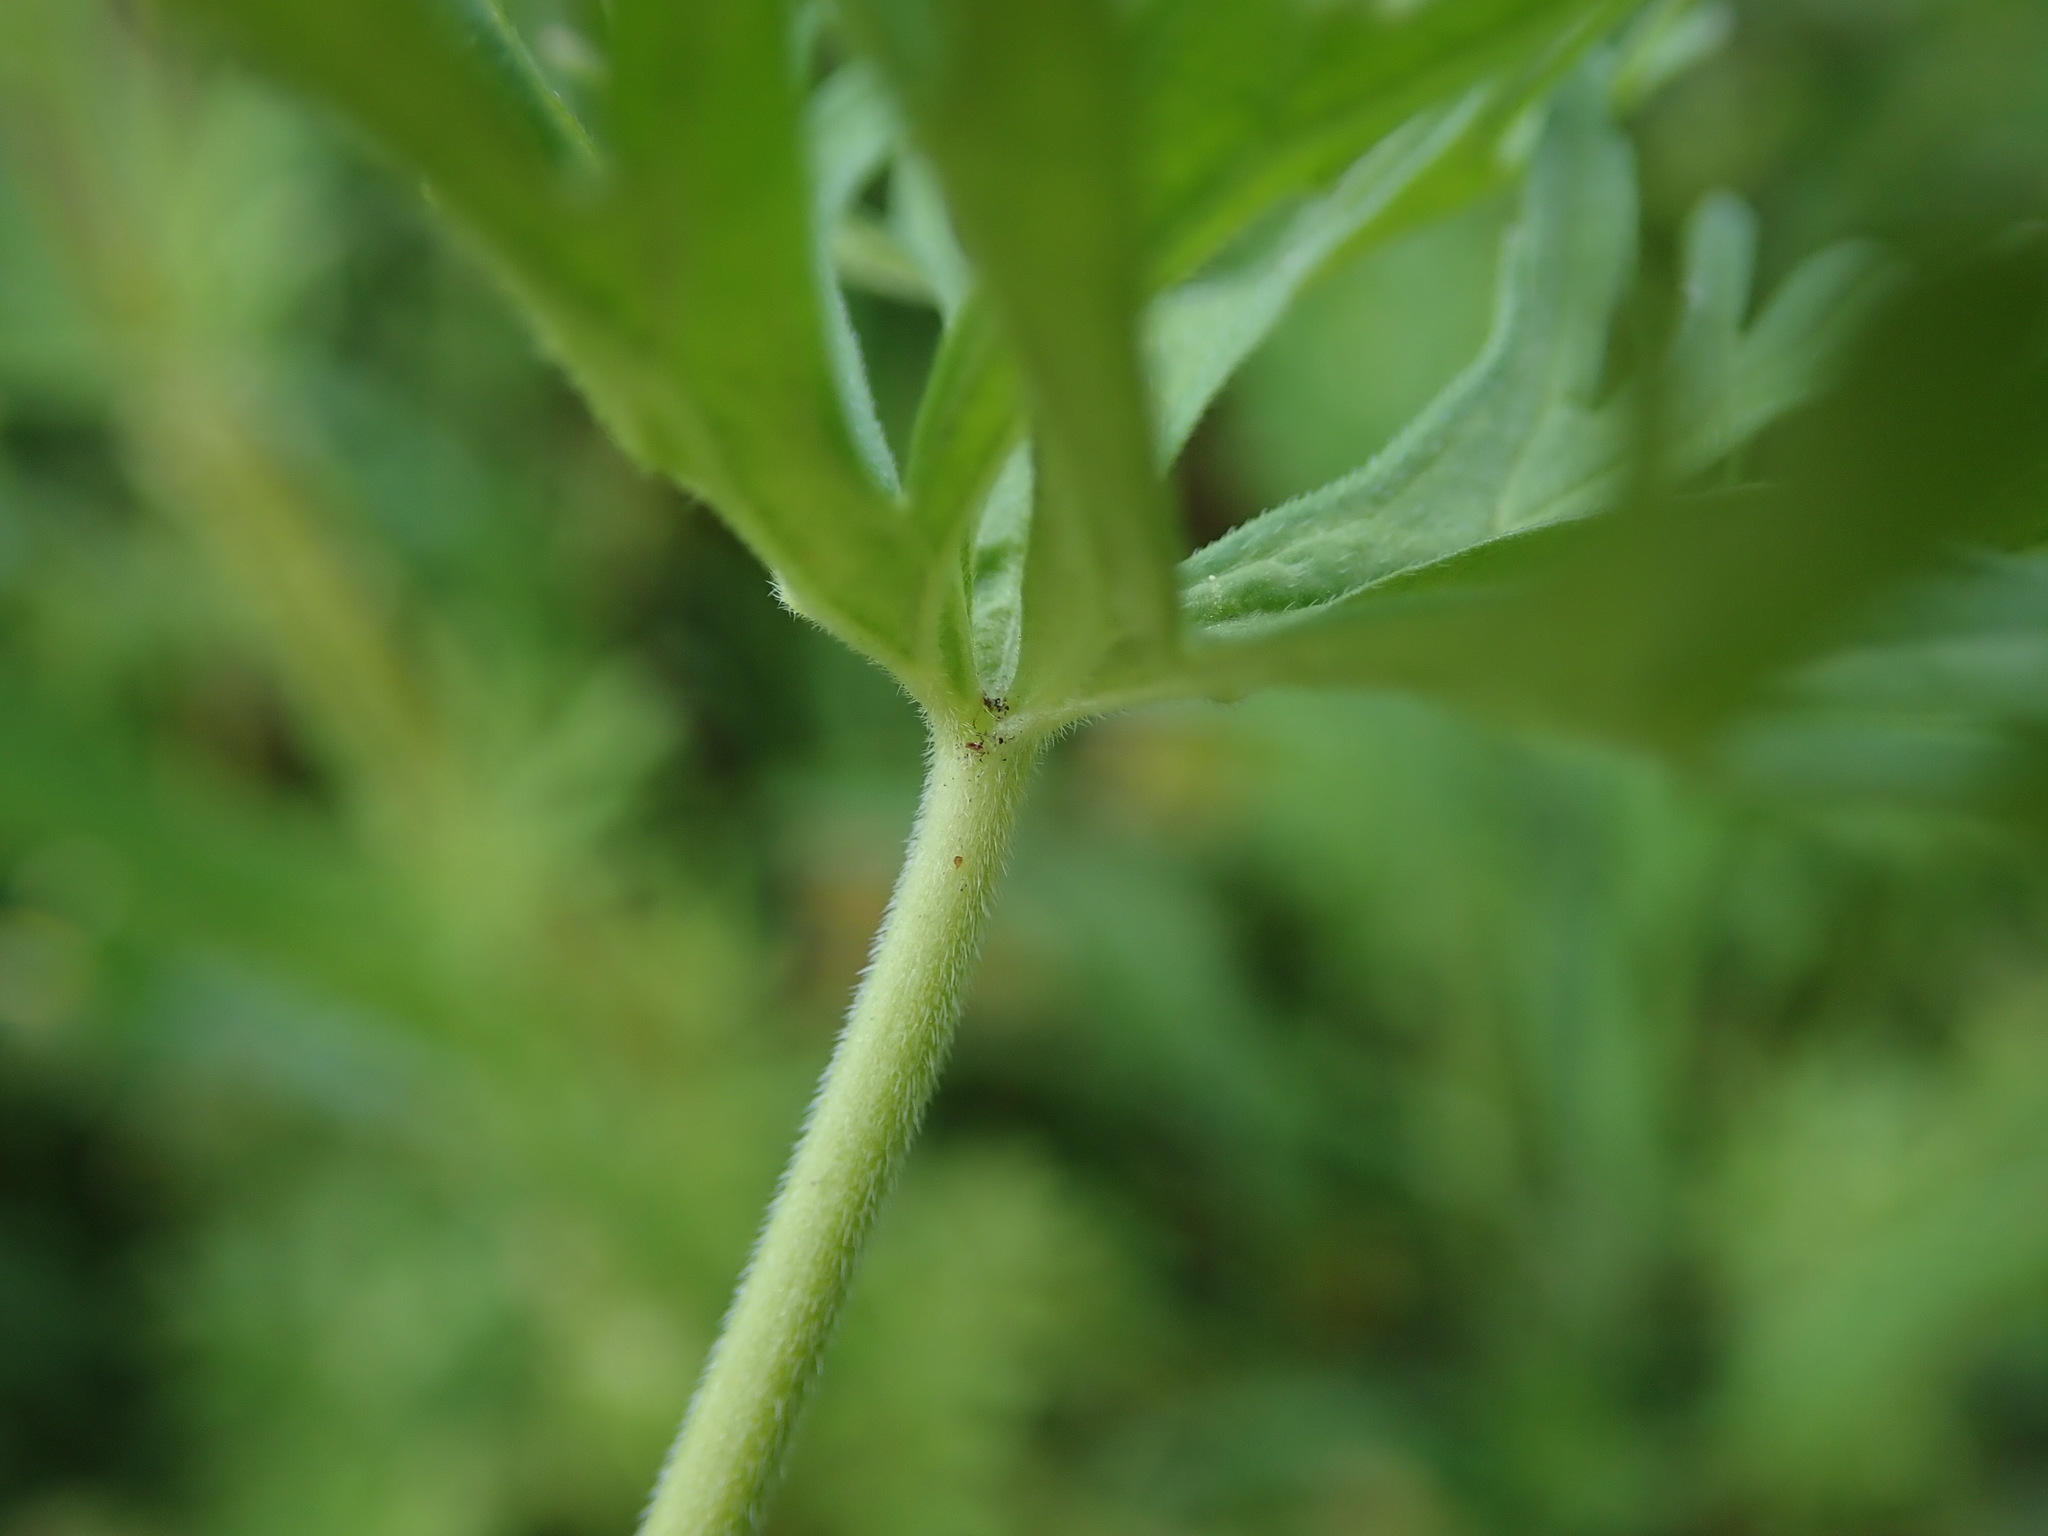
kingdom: Plantae
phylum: Tracheophyta
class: Magnoliopsida
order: Geraniales
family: Geraniaceae
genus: Geranium
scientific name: Geranium dissectum
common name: Cut-leaved crane's-bill
